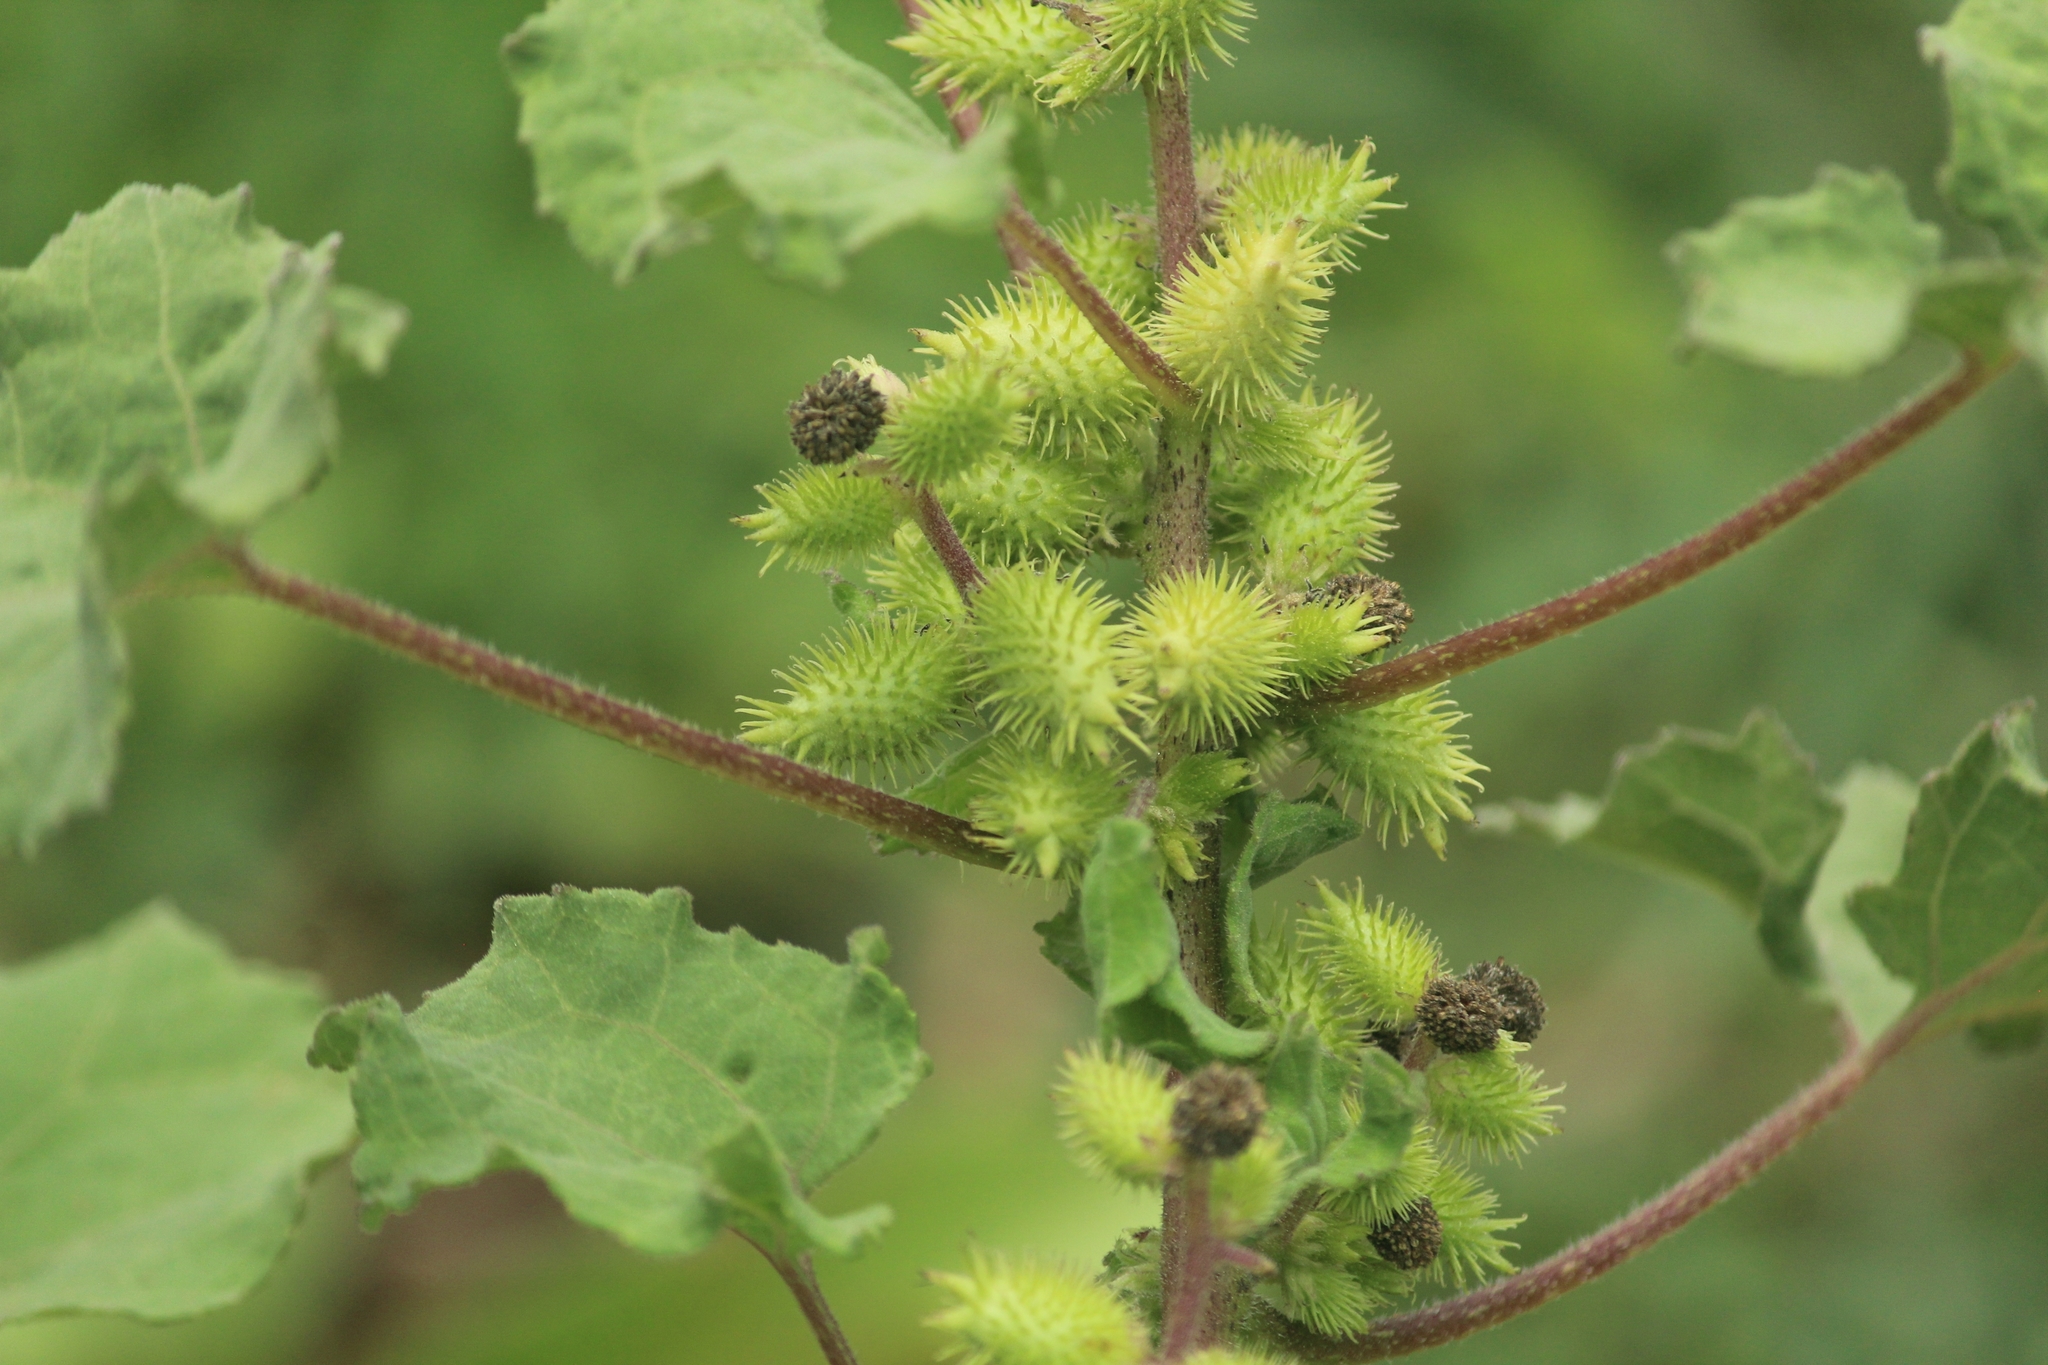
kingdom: Plantae
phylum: Tracheophyta
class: Magnoliopsida
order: Asterales
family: Asteraceae
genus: Xanthium
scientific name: Xanthium strumarium
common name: Rough cocklebur
